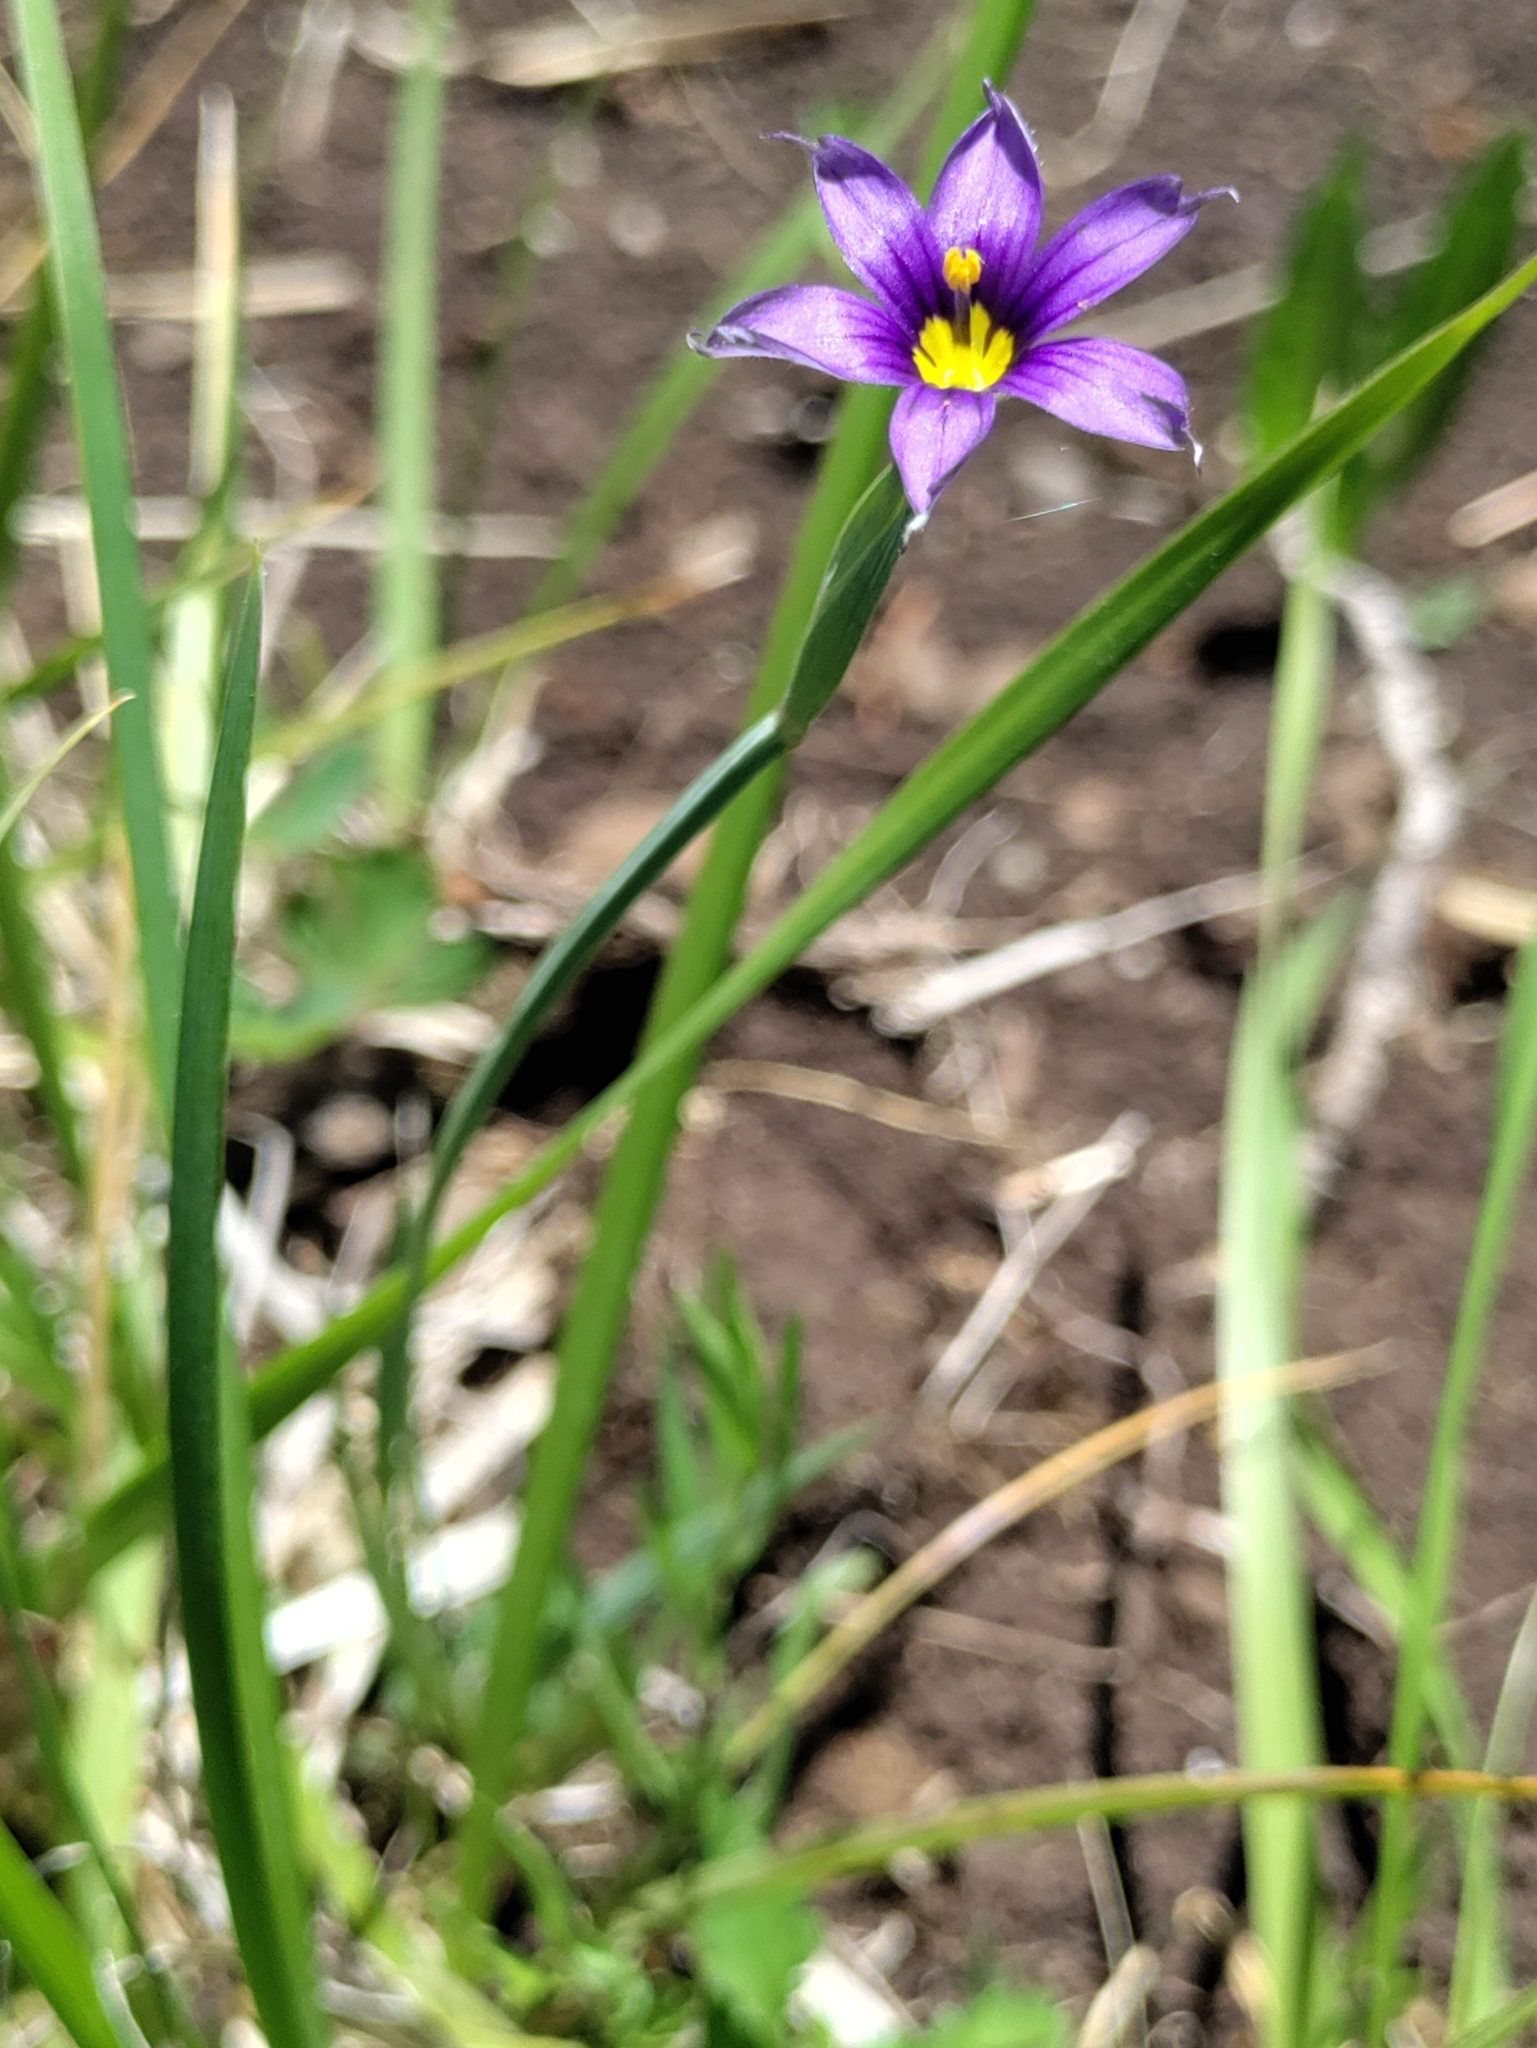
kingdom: Plantae
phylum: Tracheophyta
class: Liliopsida
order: Asparagales
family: Iridaceae
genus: Sisyrinchium
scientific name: Sisyrinchium bellum
